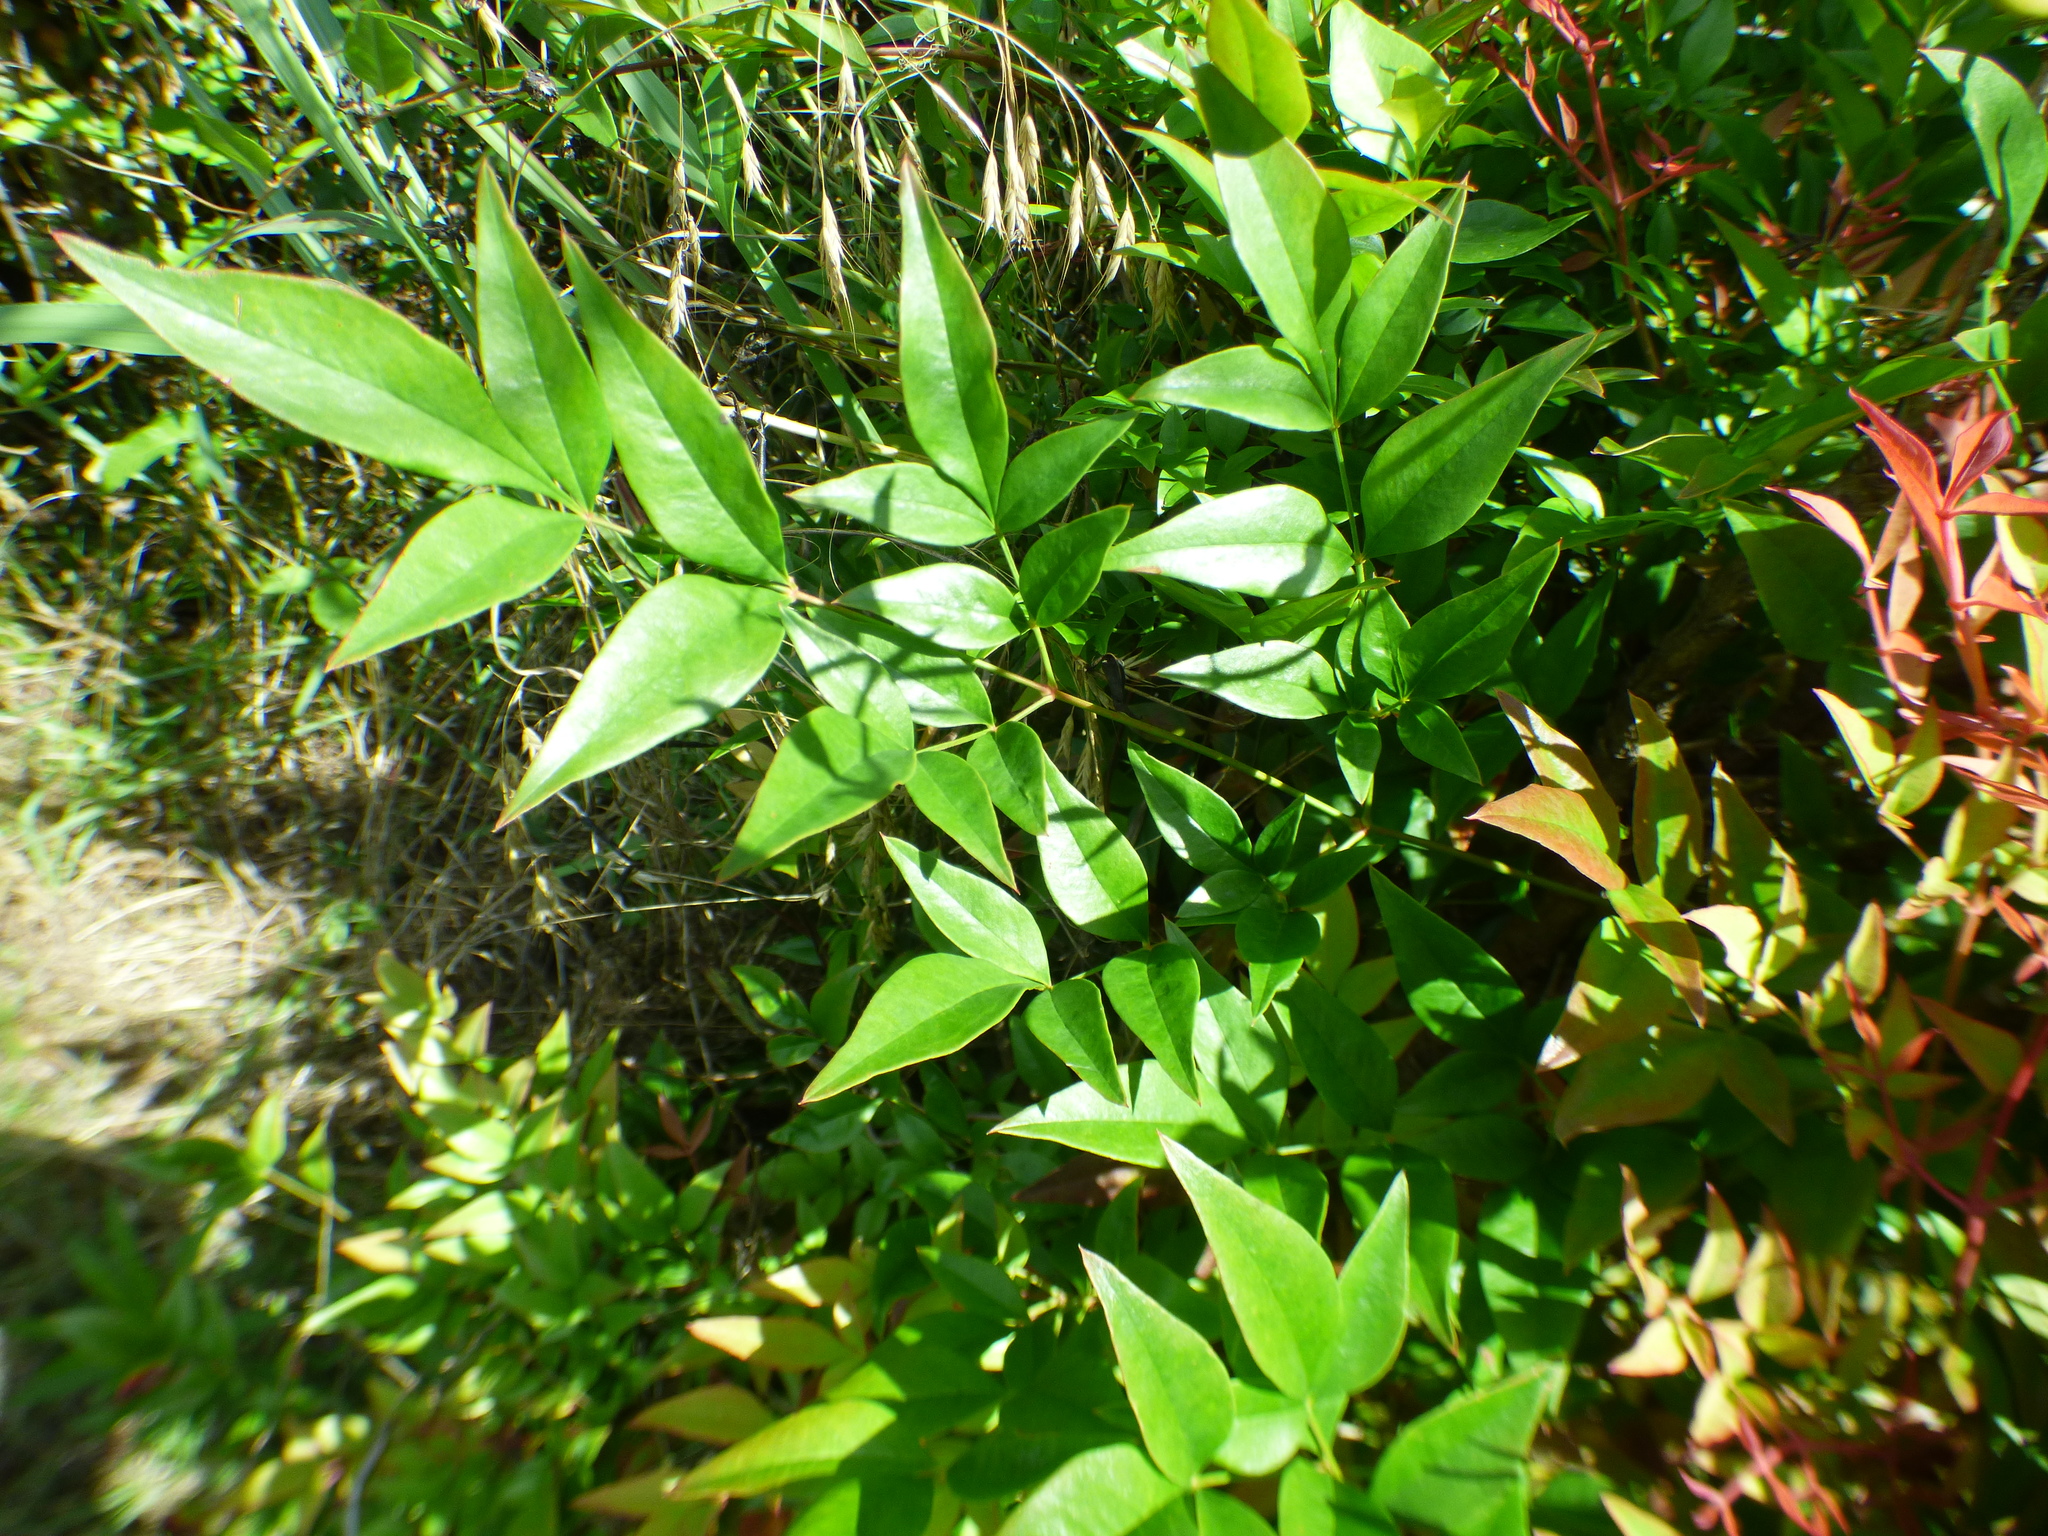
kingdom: Plantae
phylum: Tracheophyta
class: Magnoliopsida
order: Ranunculales
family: Berberidaceae
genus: Nandina
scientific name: Nandina domestica
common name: Sacred bamboo
